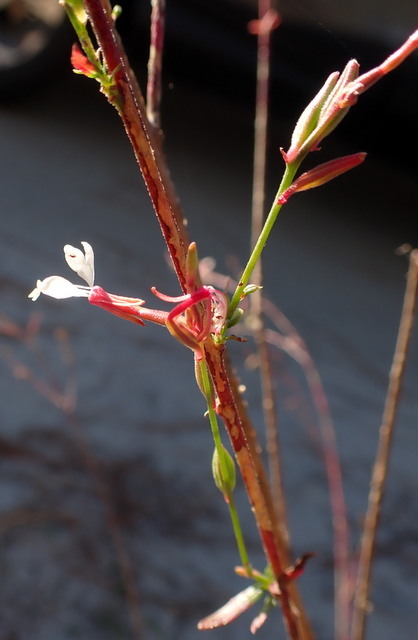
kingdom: Plantae
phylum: Tracheophyta
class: Magnoliopsida
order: Myrtales
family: Onagraceae
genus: Oenothera
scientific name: Oenothera simulans
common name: Southern beeblossom
